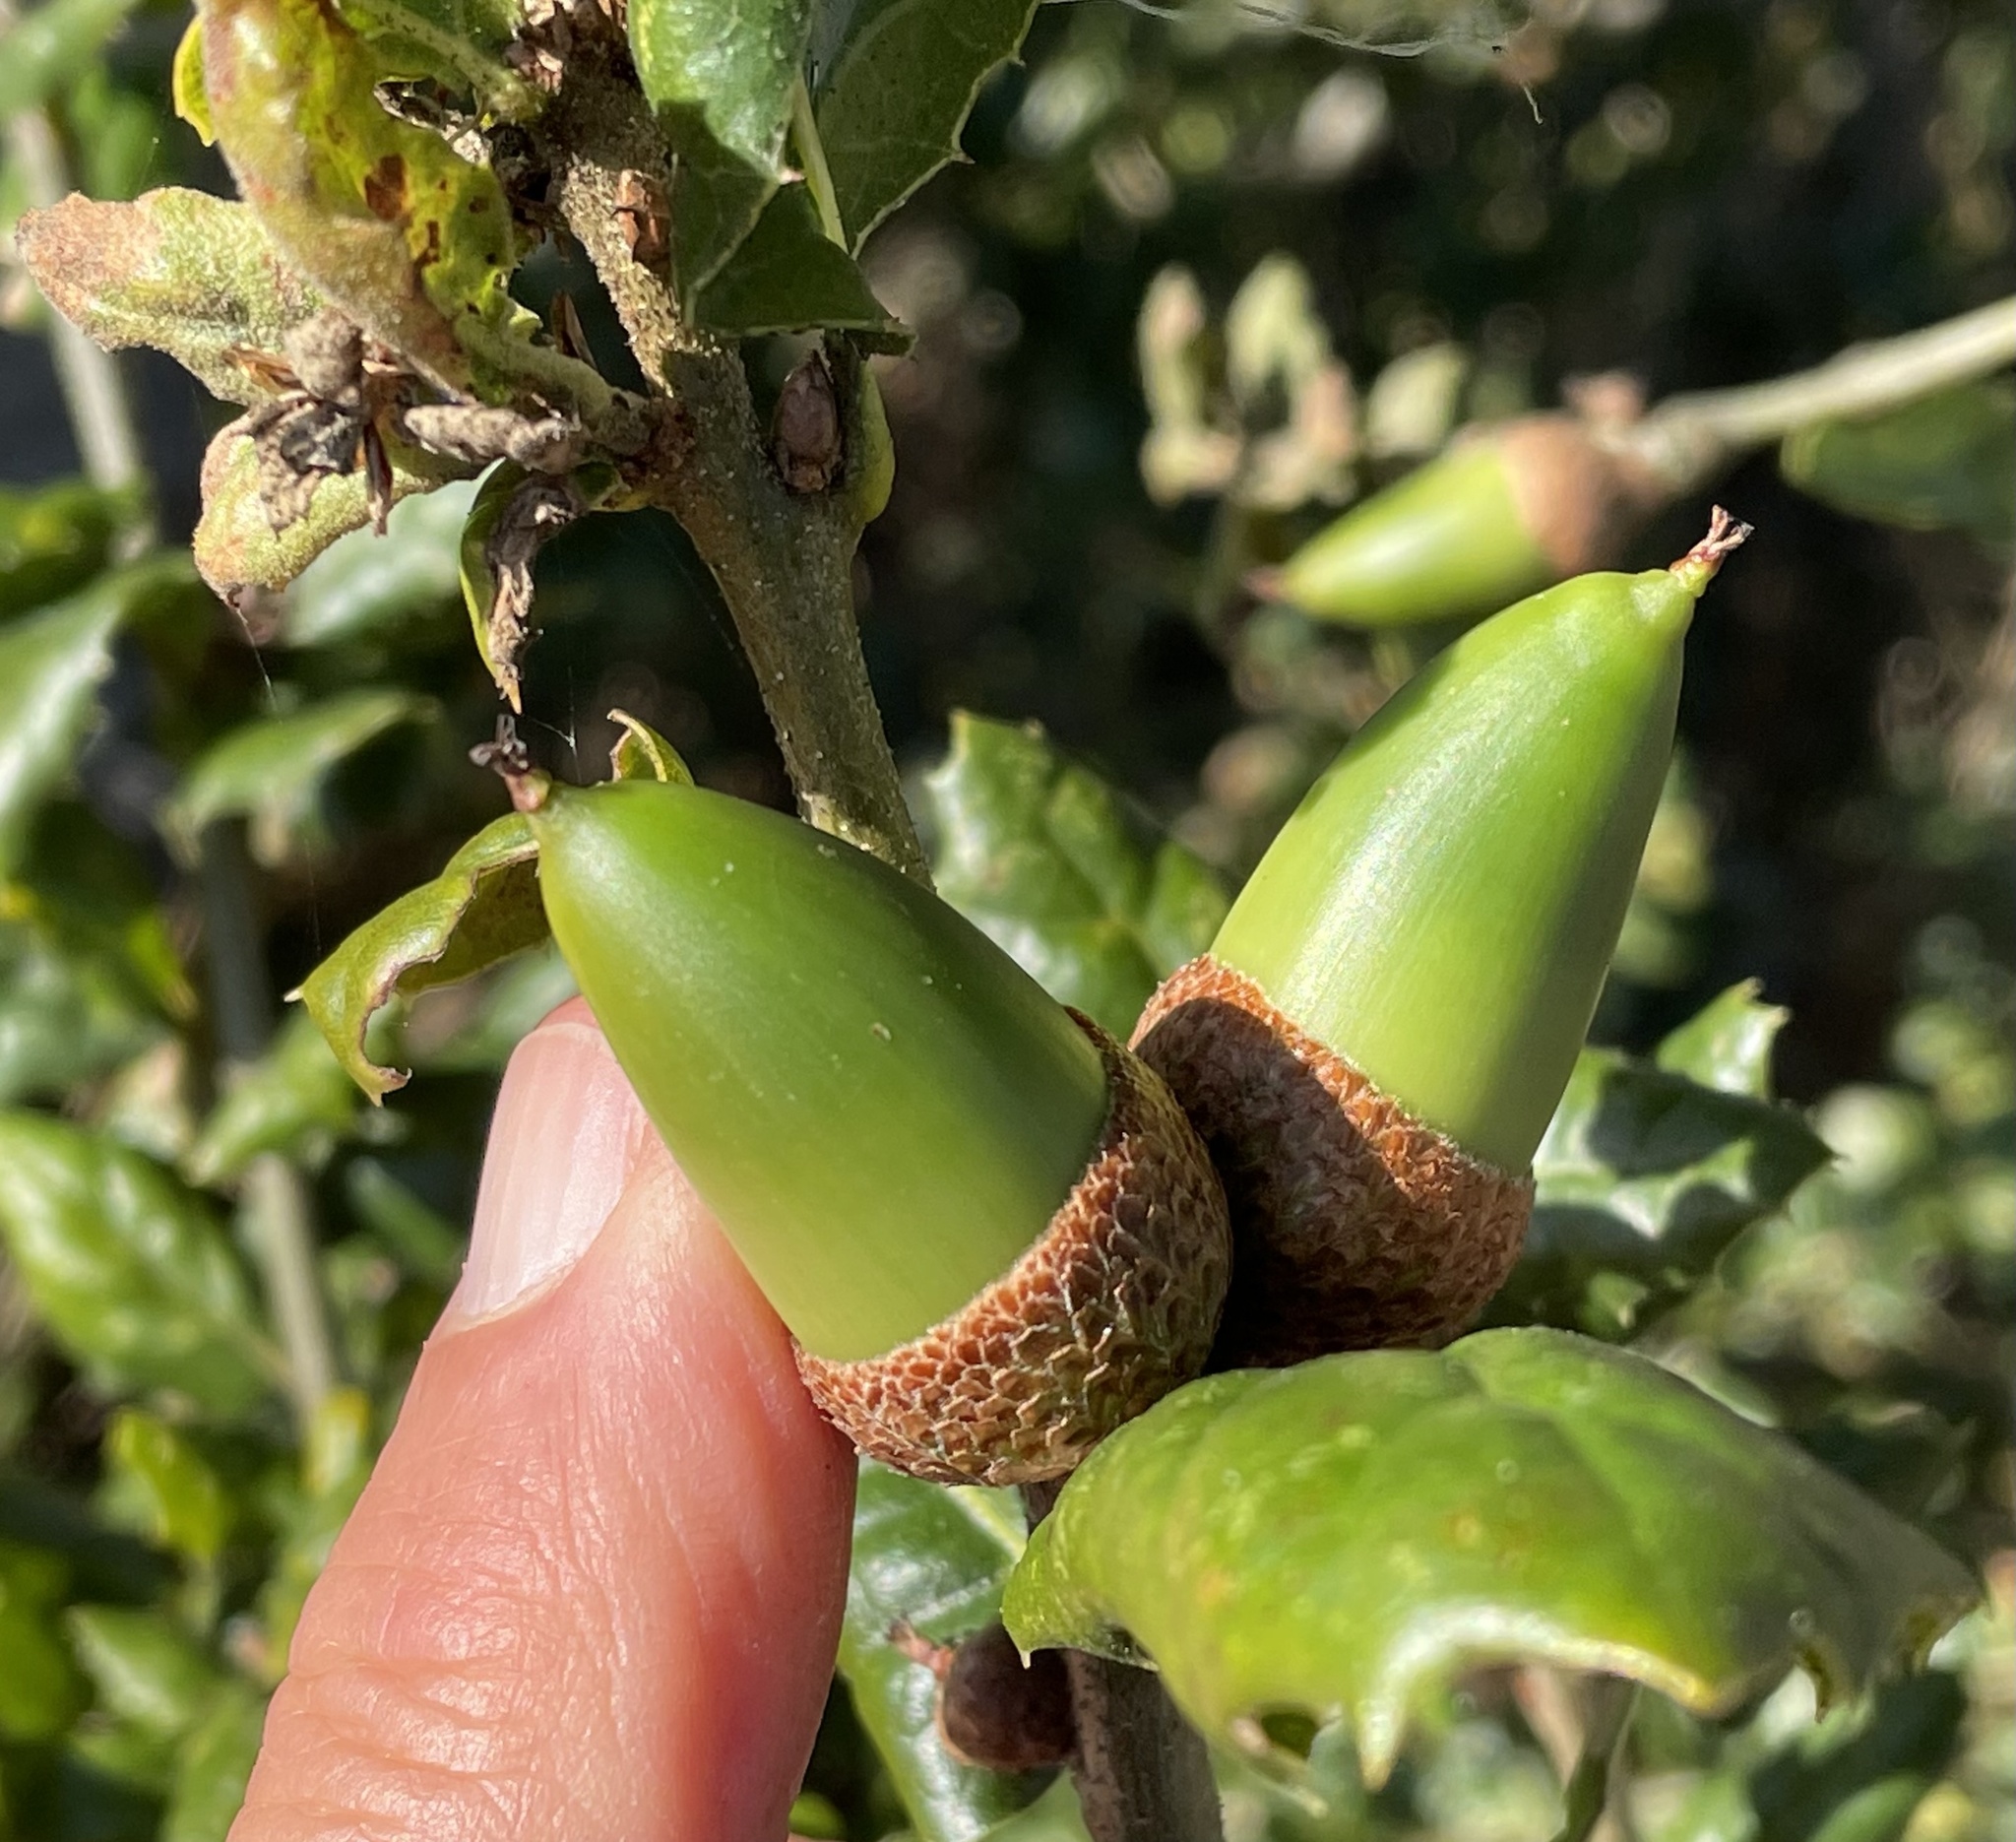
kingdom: Plantae
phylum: Tracheophyta
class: Magnoliopsida
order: Fagales
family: Fagaceae
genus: Quercus
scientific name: Quercus agrifolia
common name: California live oak
